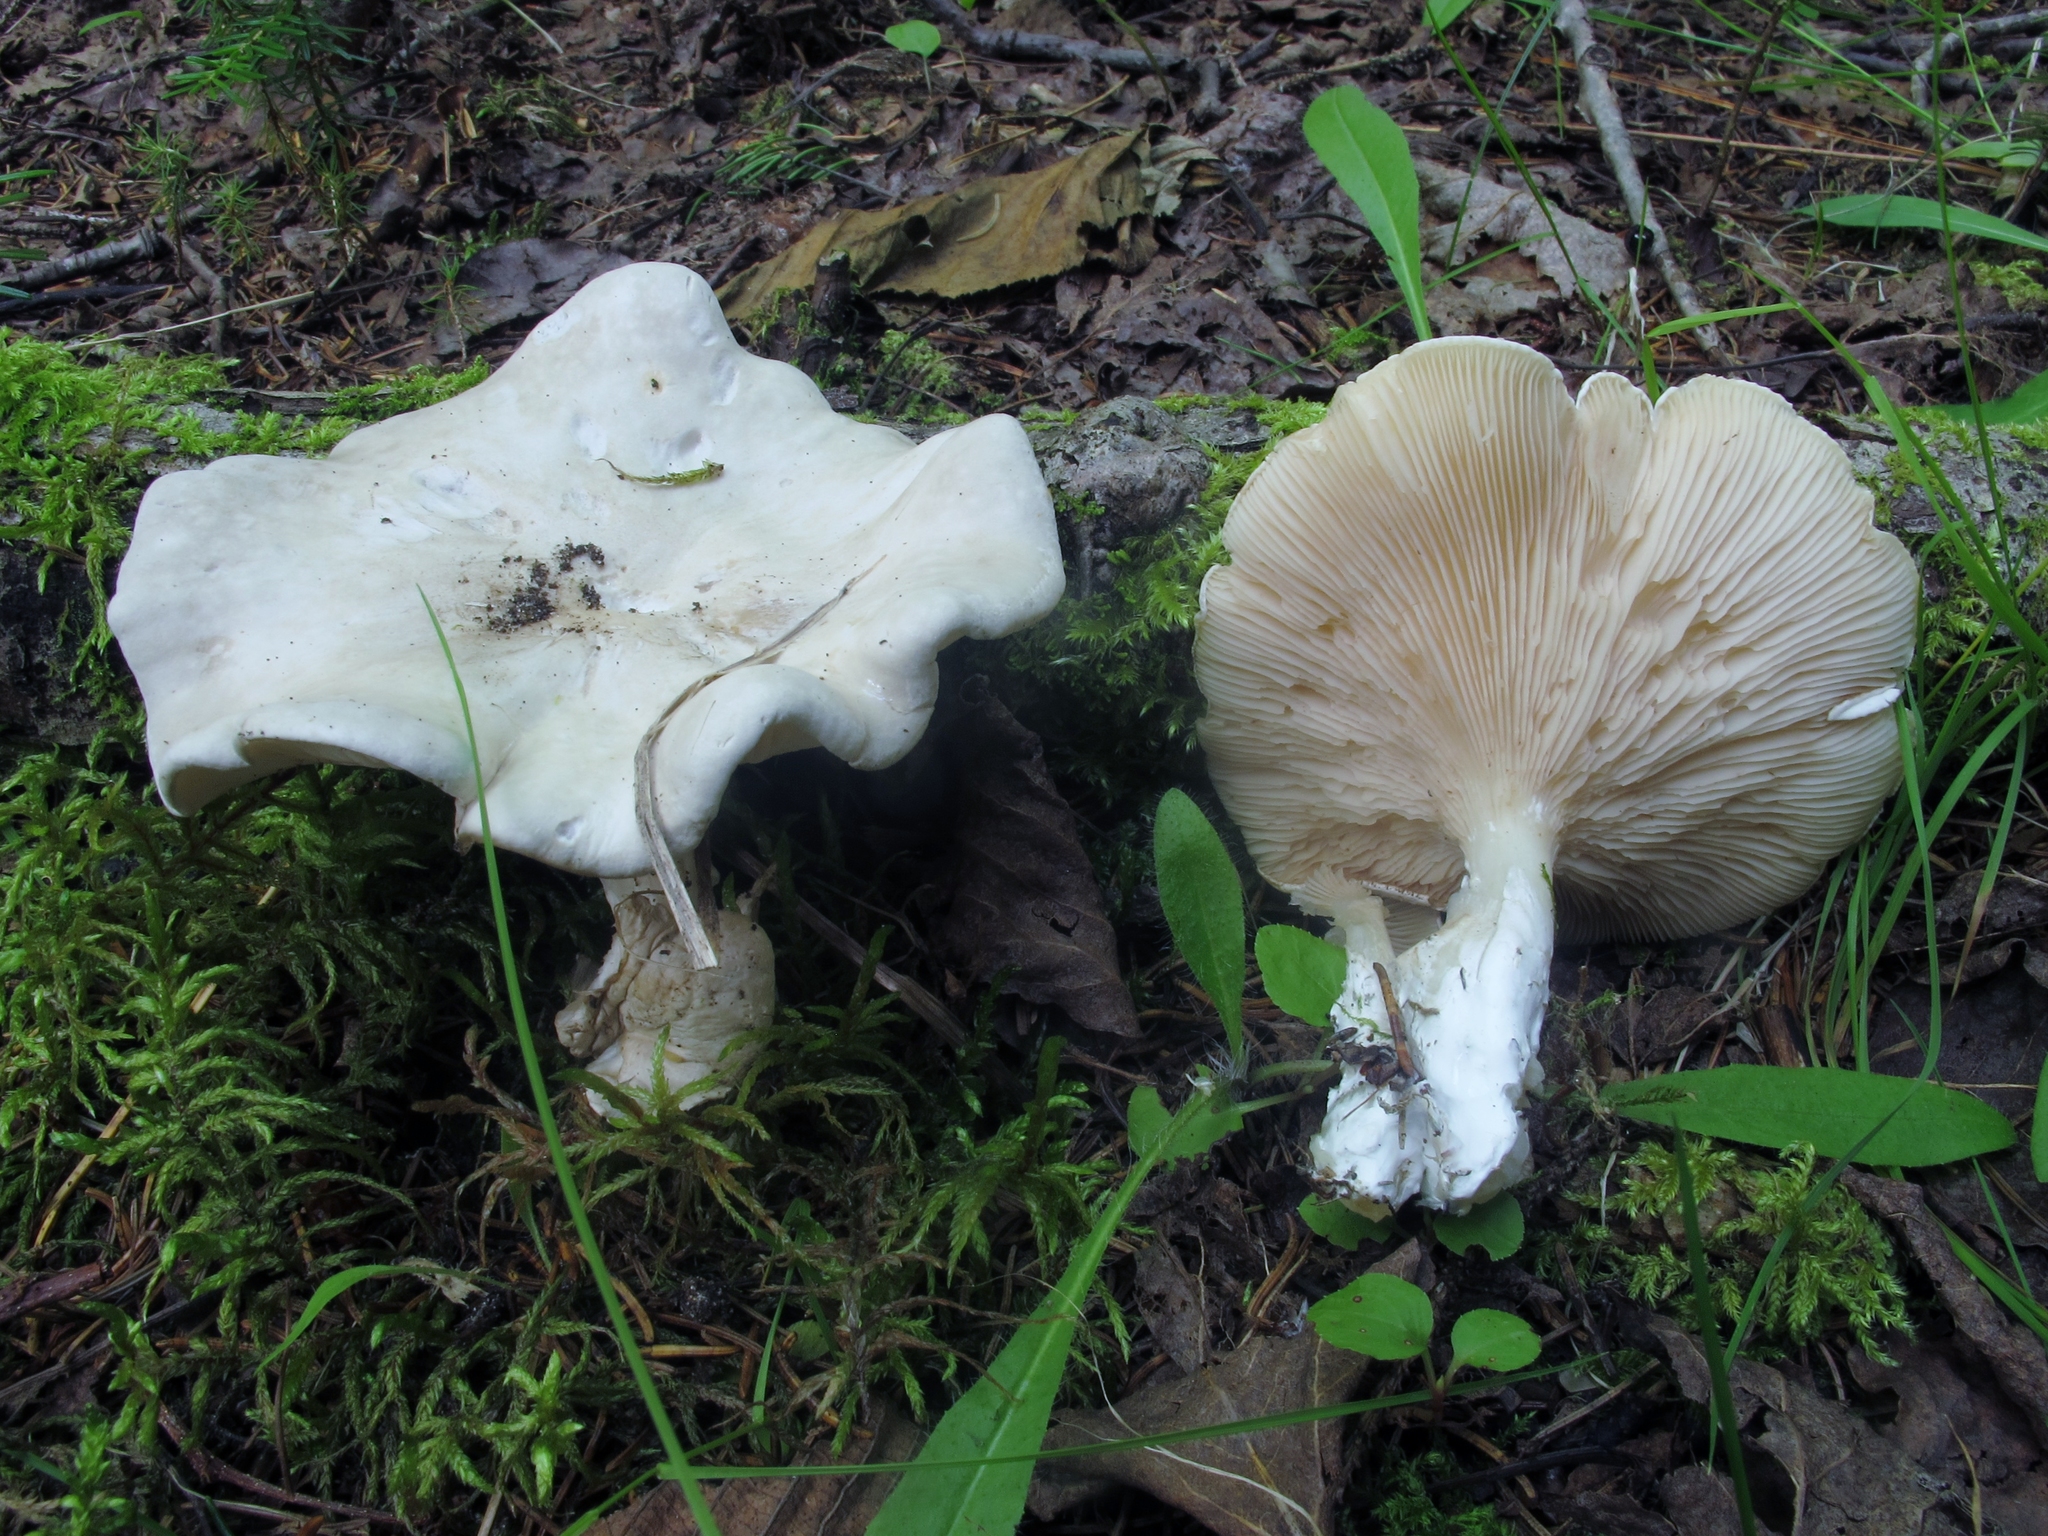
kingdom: Fungi
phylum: Basidiomycota
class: Agaricomycetes
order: Agaricales
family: Entolomataceae
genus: Clitopilus
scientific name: Clitopilus prunulus
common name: The miller
